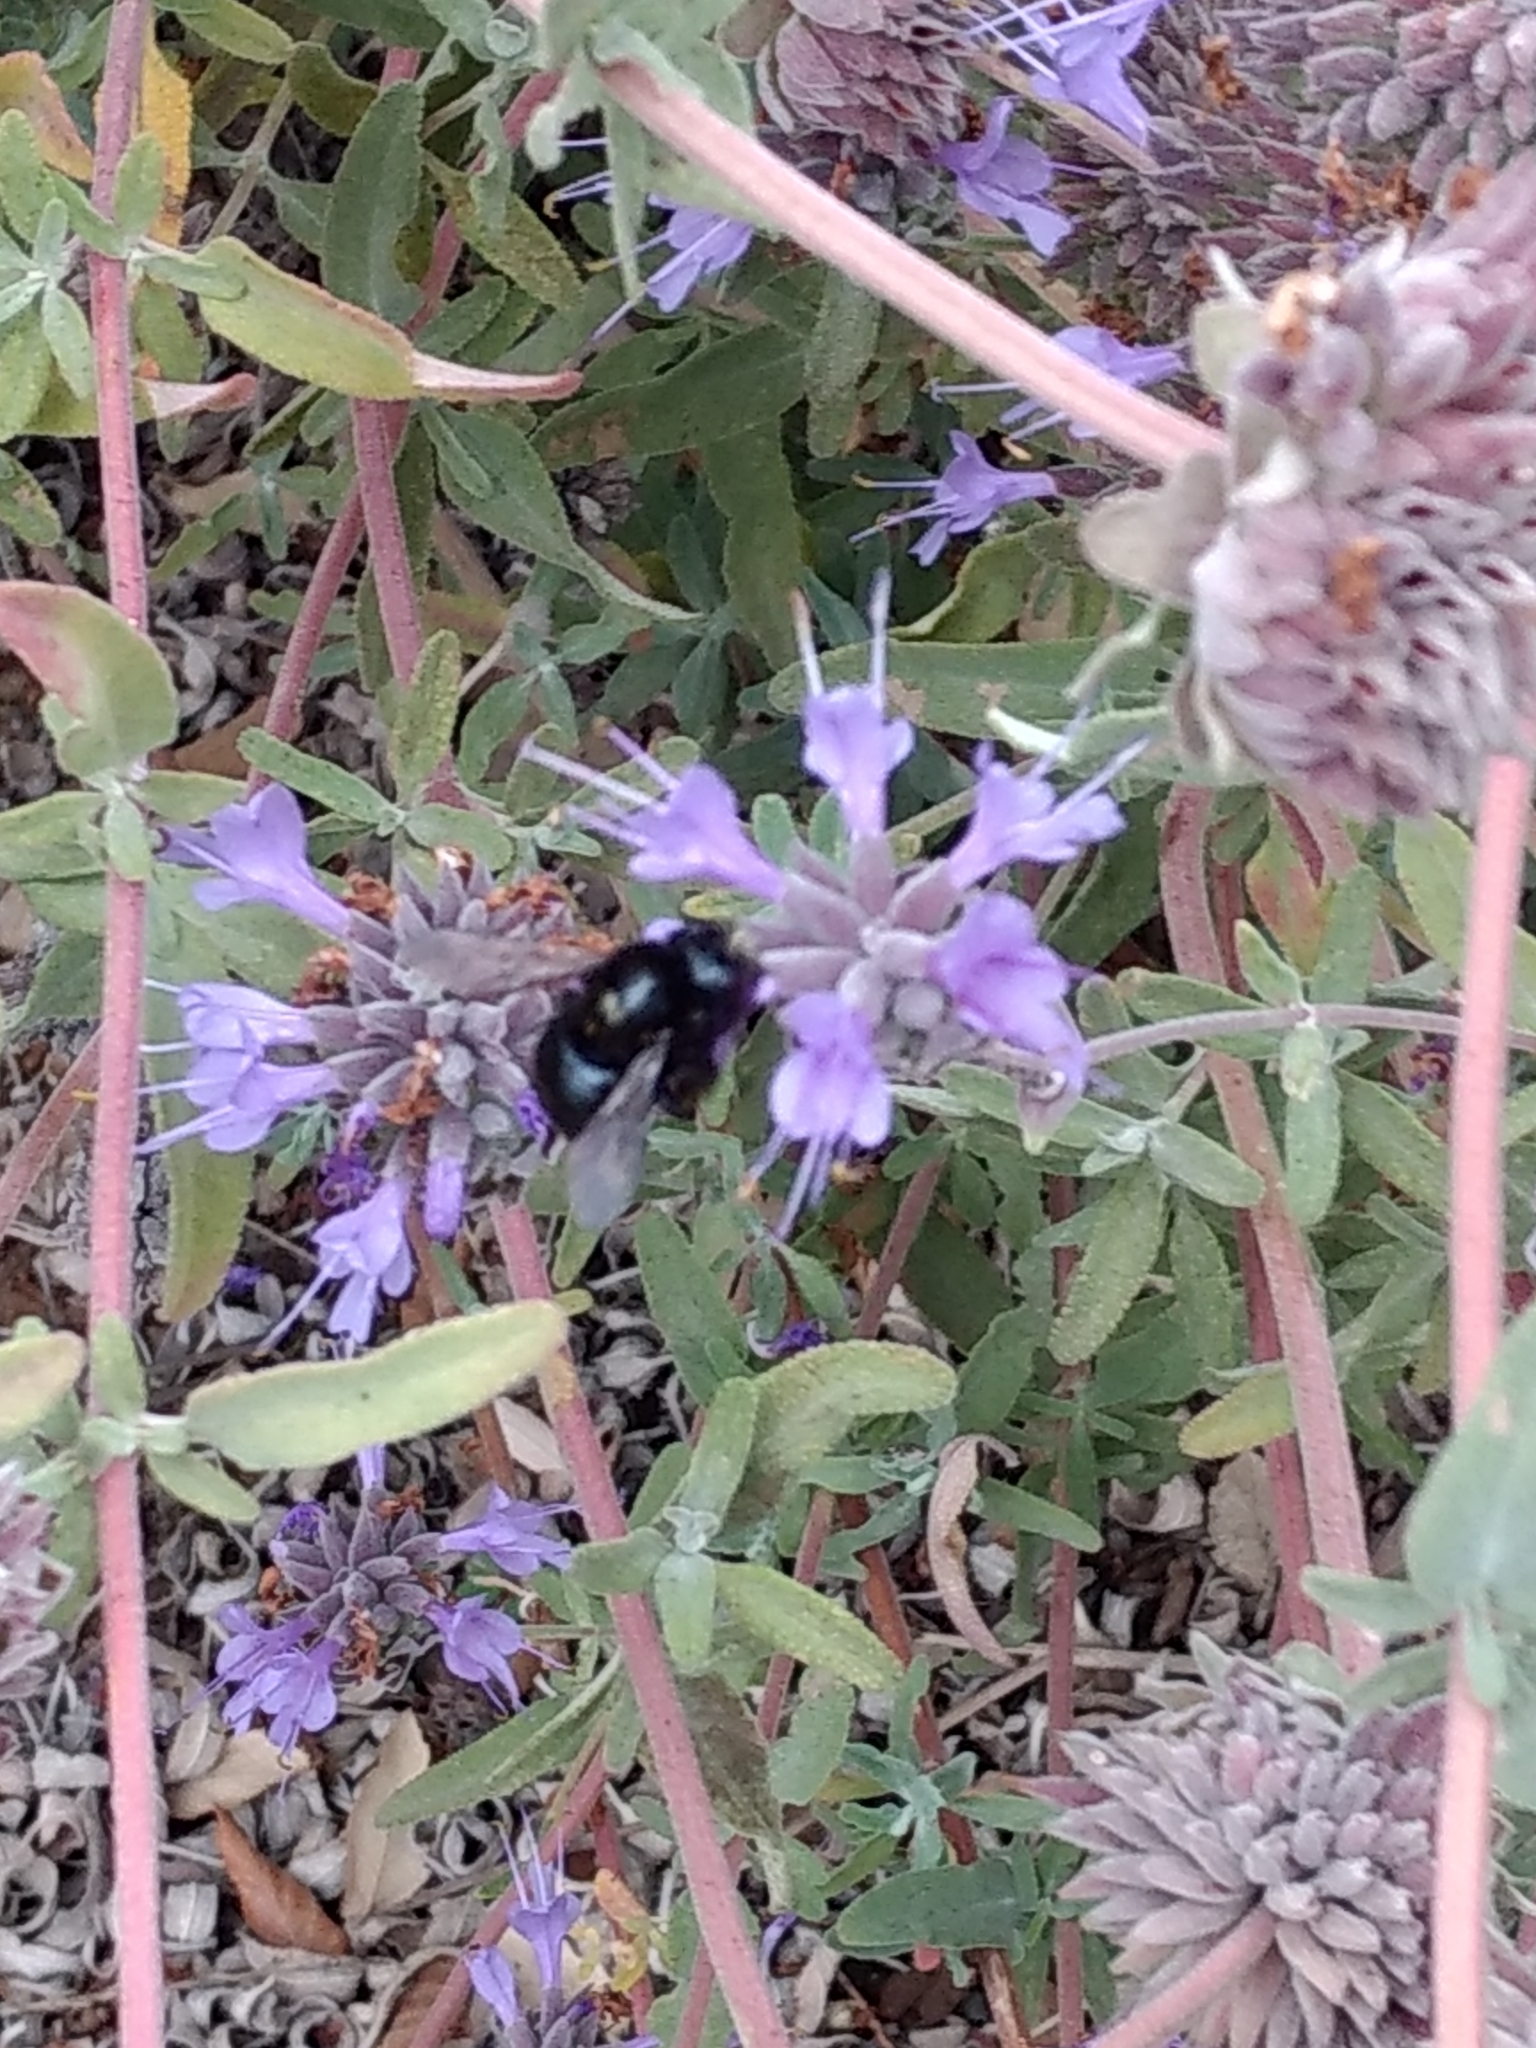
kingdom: Animalia
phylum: Arthropoda
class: Insecta
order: Hymenoptera
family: Apidae
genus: Xylocopa
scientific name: Xylocopa tabaniformis
